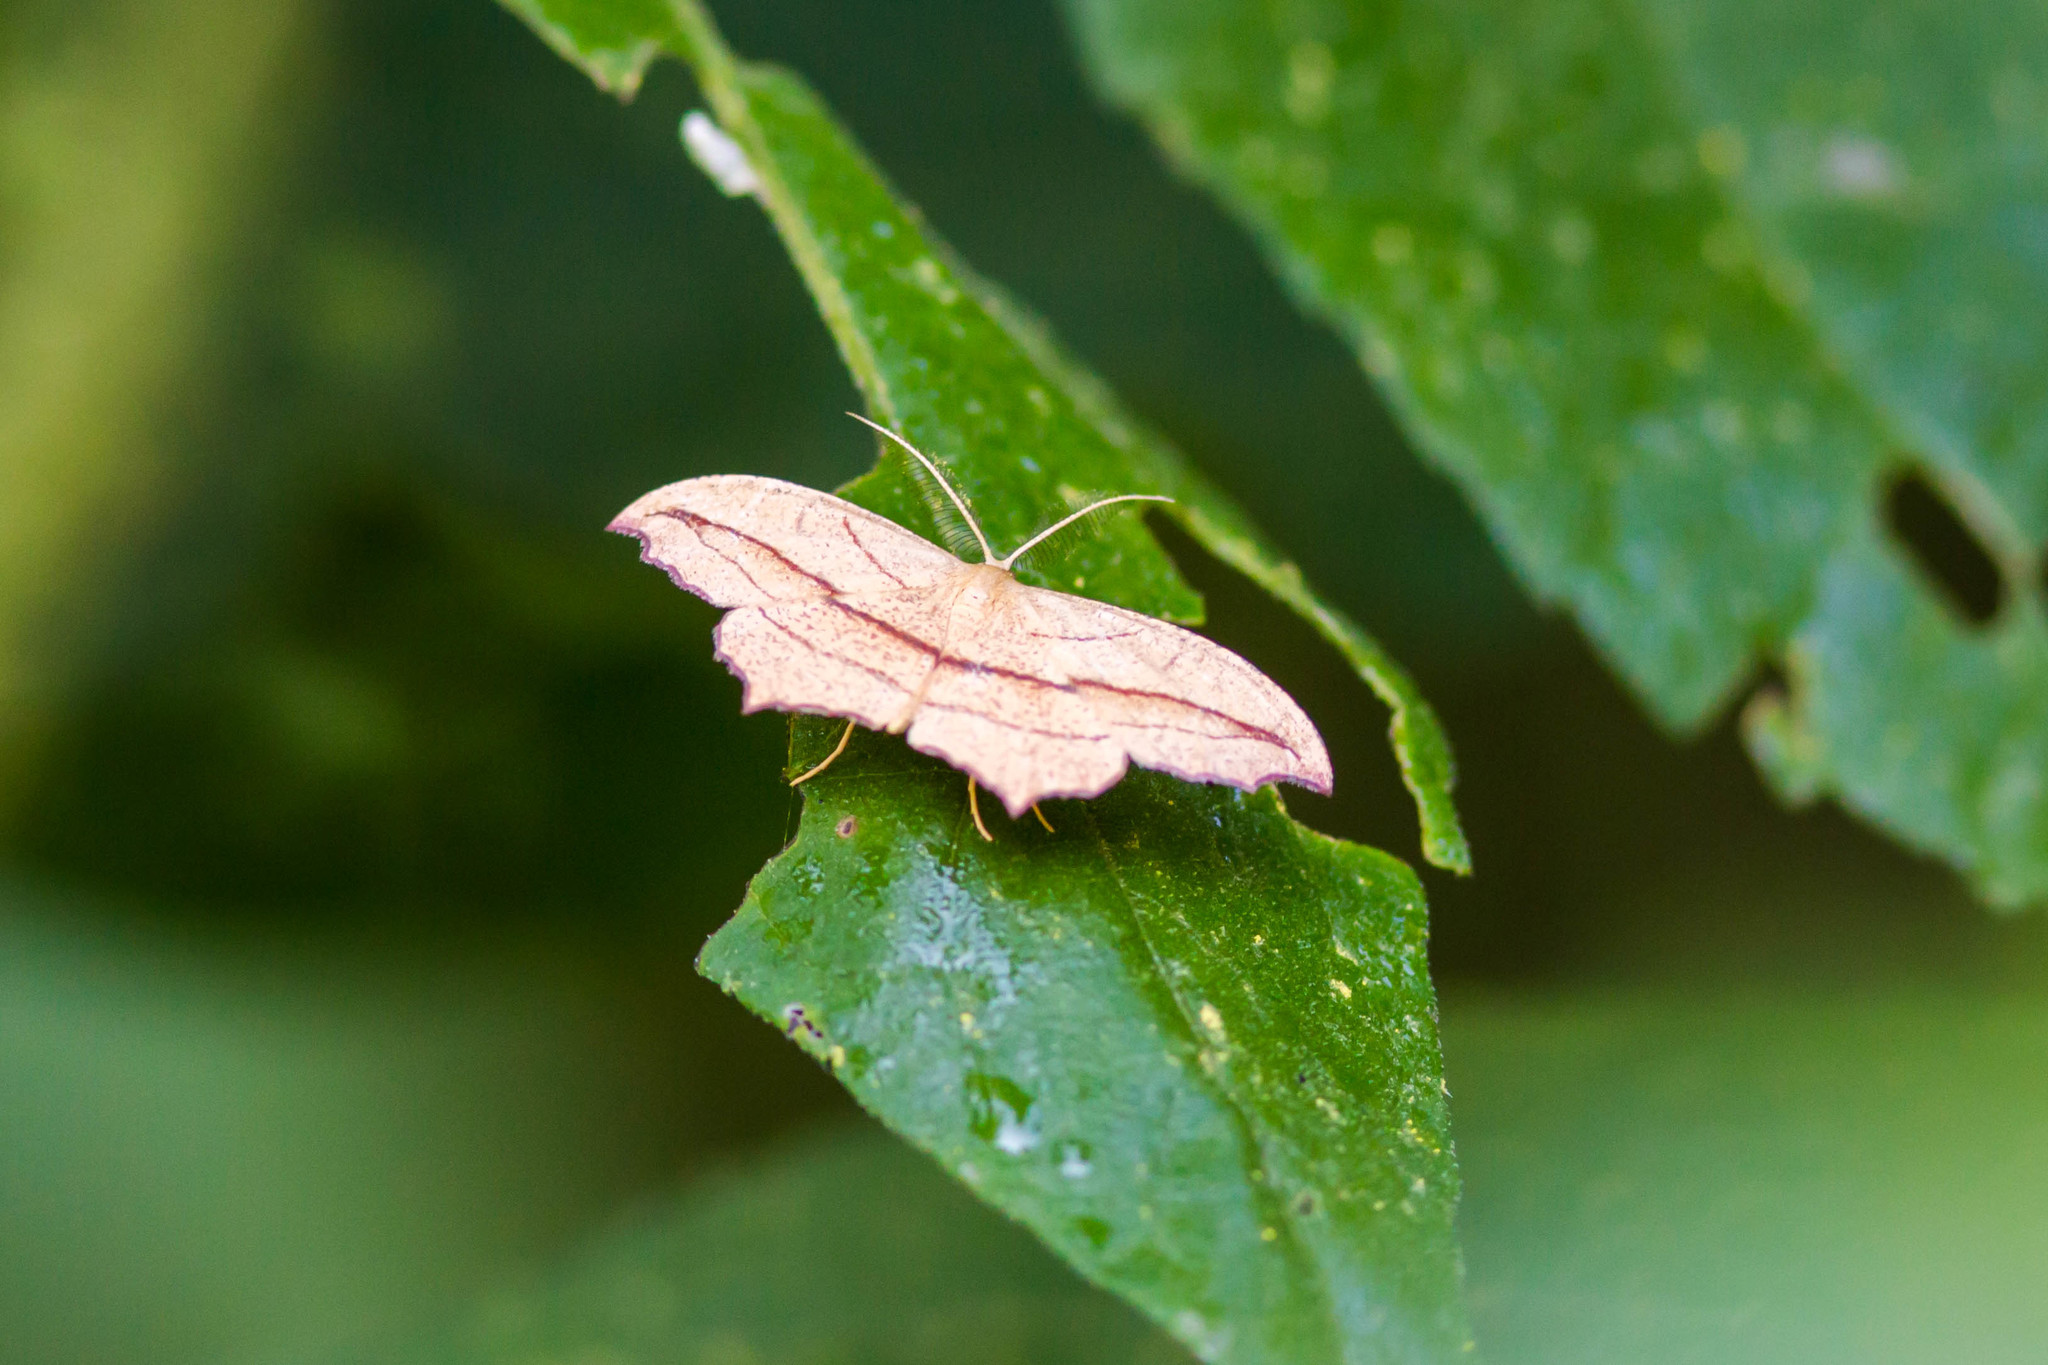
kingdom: Animalia
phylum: Arthropoda
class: Insecta
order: Lepidoptera
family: Geometridae
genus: Timandra
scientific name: Timandra amaturaria
